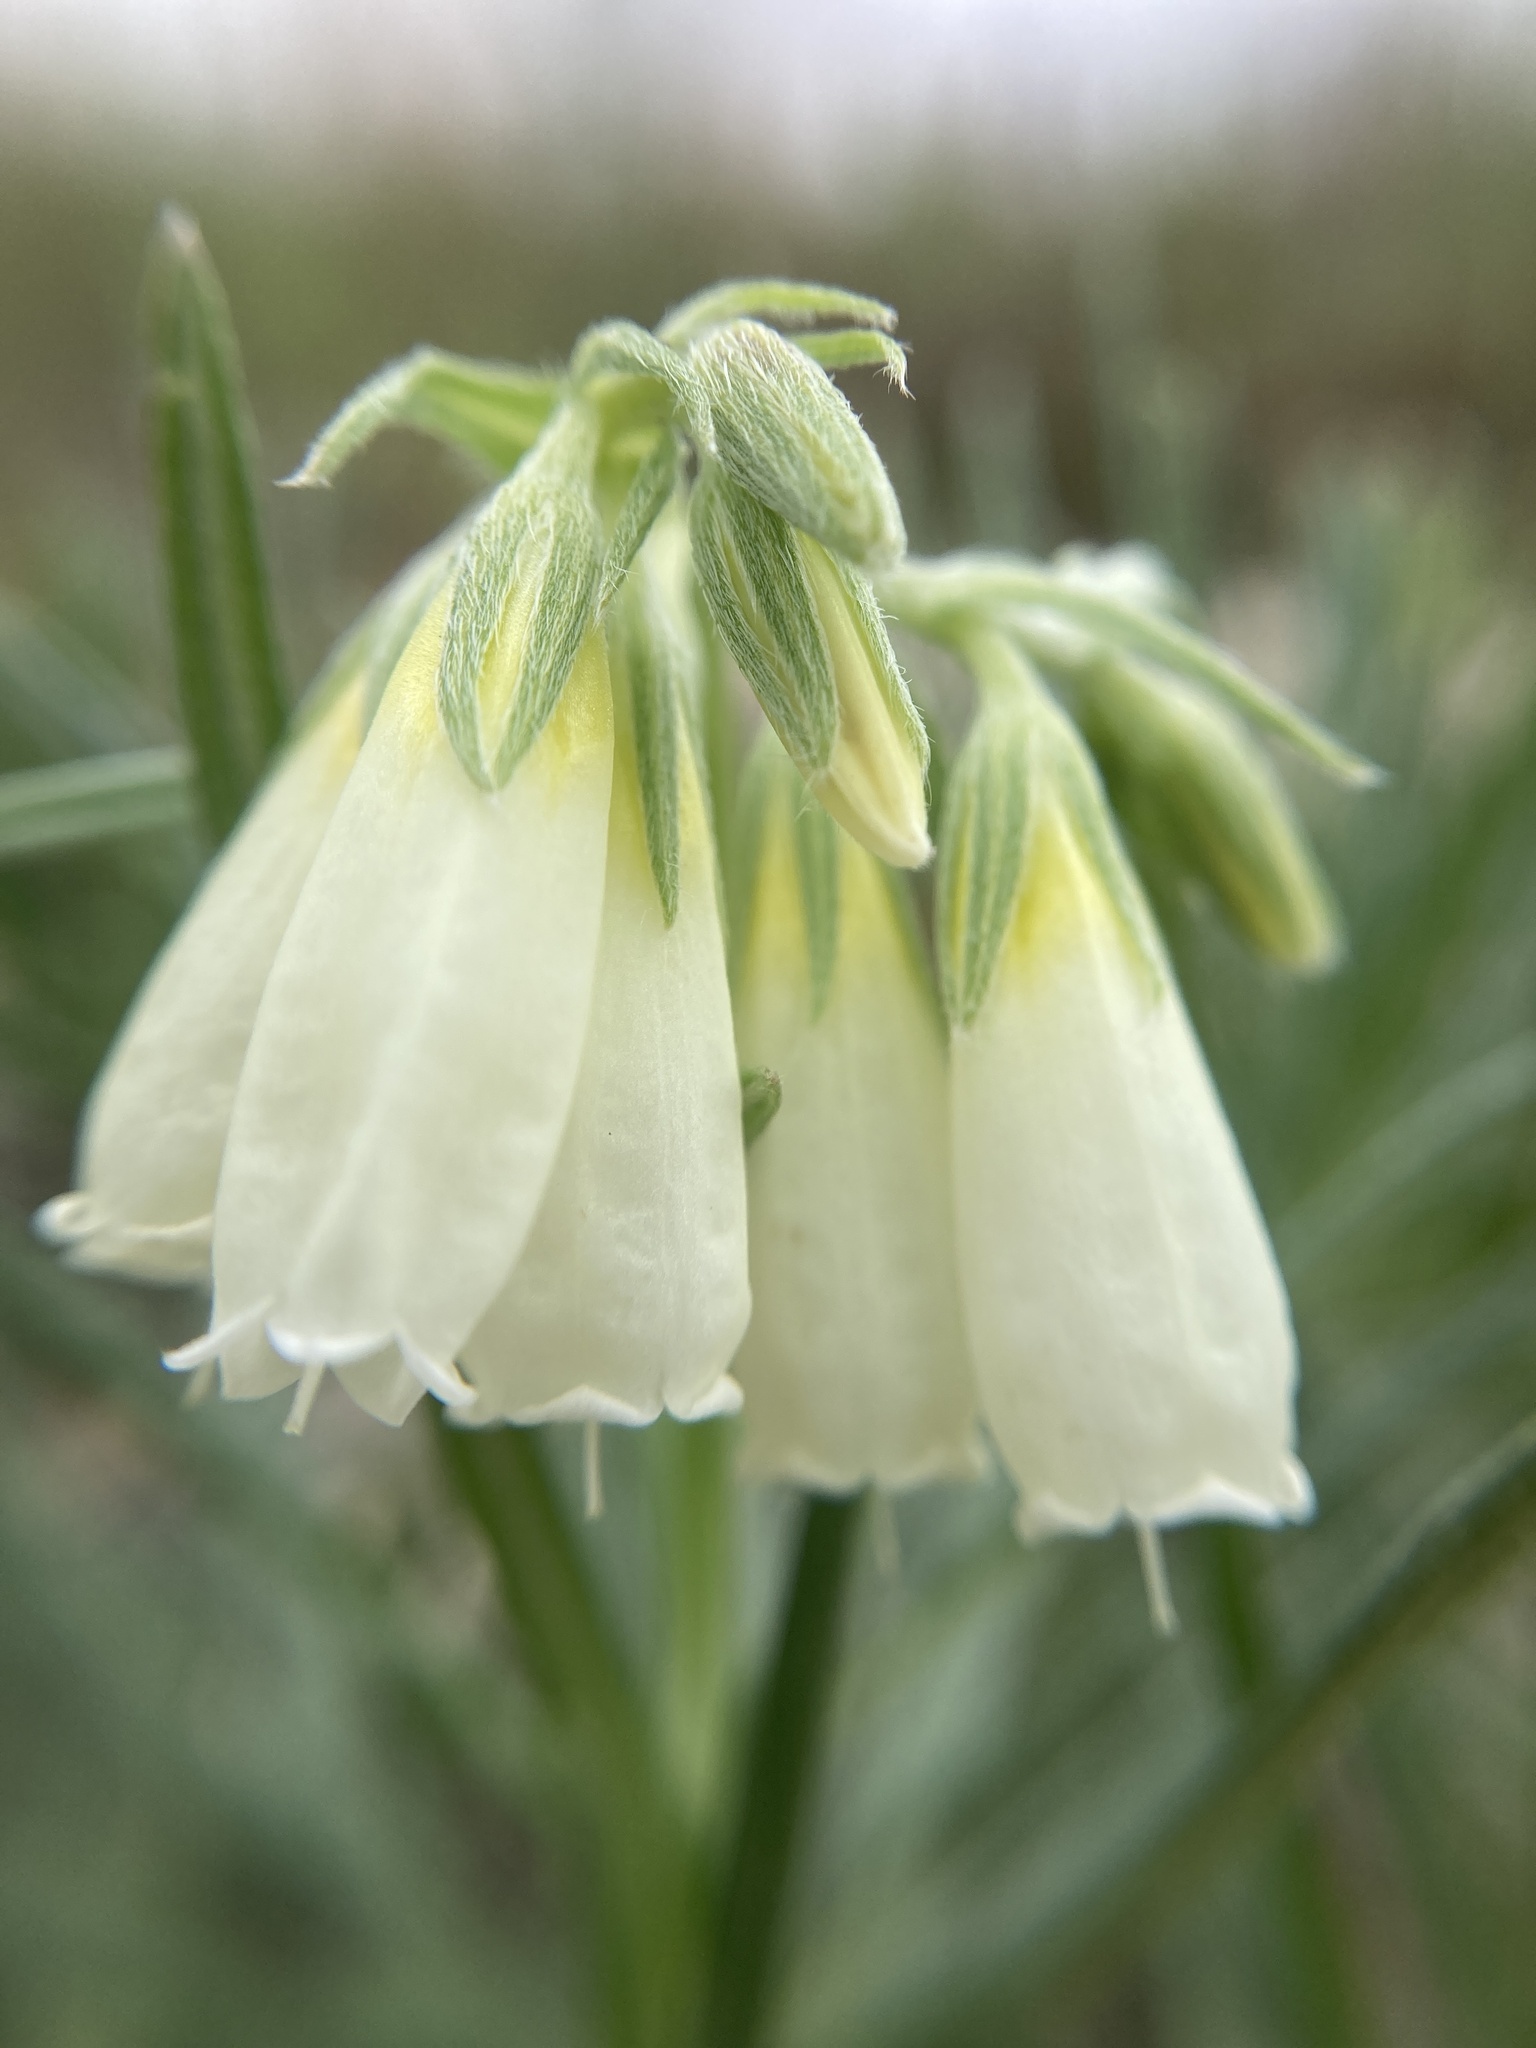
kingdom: Plantae
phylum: Tracheophyta
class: Magnoliopsida
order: Boraginales
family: Boraginaceae
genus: Onosma
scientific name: Onosma simplicissima
